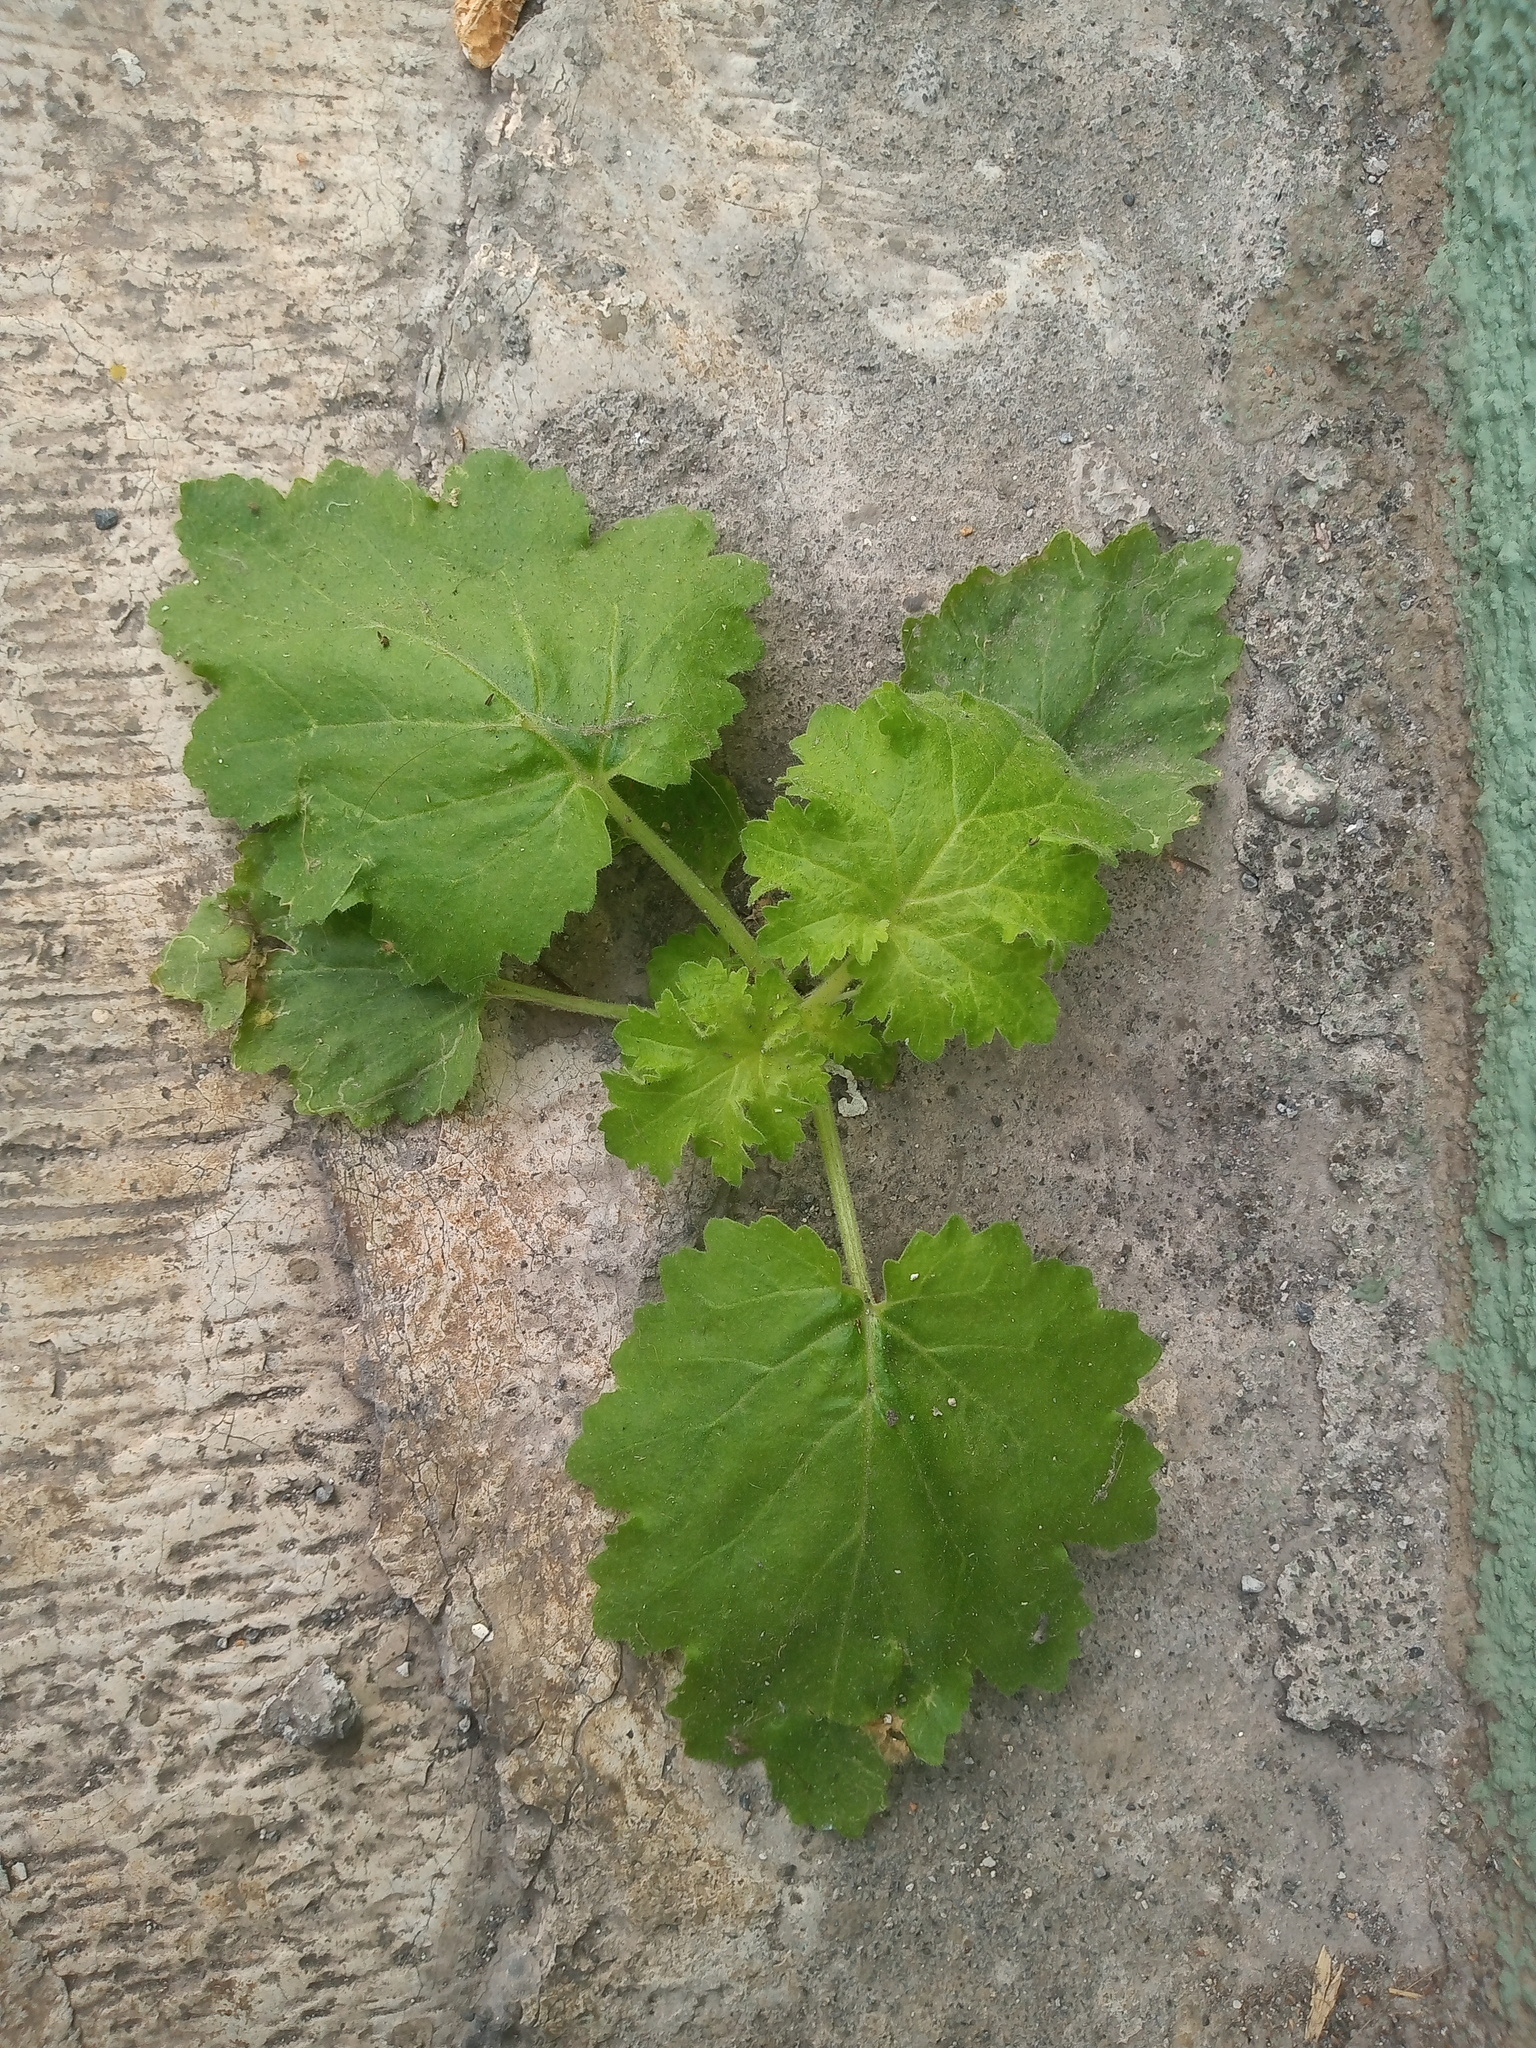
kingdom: Plantae
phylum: Tracheophyta
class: Magnoliopsida
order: Cornales
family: Loasaceae
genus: Eucnide
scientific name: Eucnide lobata
